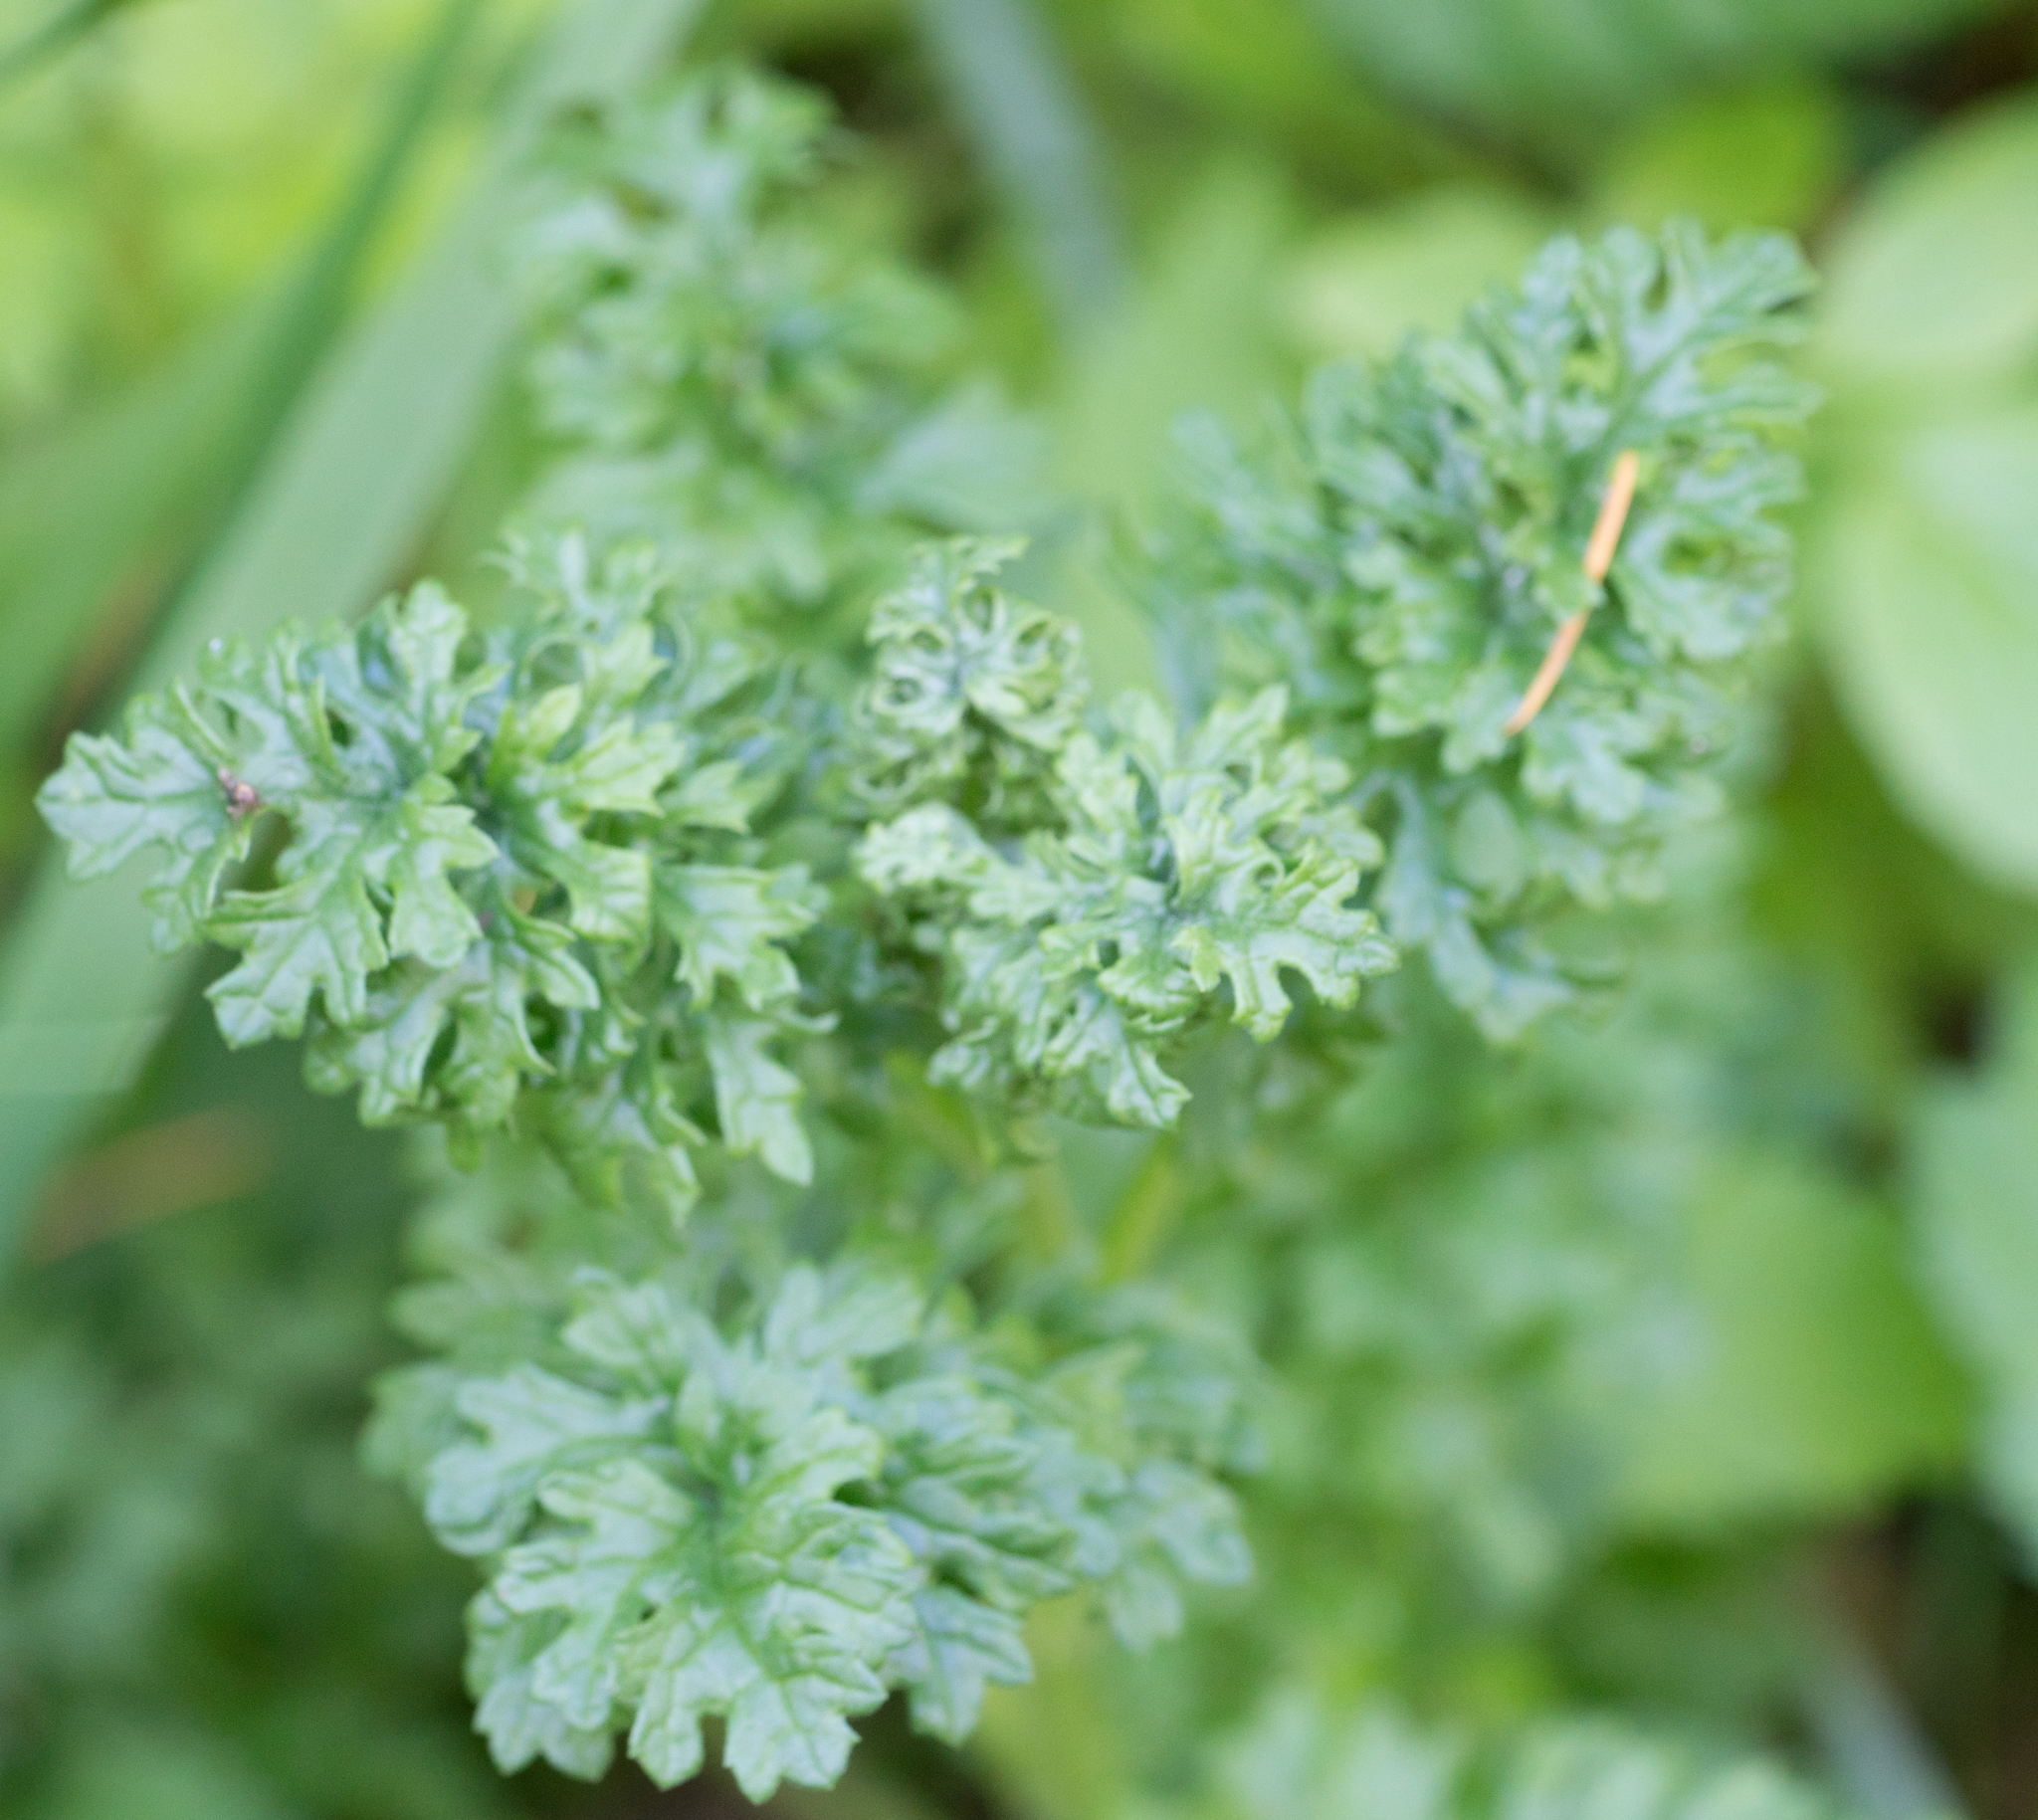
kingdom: Plantae
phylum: Tracheophyta
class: Magnoliopsida
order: Asterales
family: Asteraceae
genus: Jacobaea
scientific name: Jacobaea vulgaris
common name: Stinking willie
